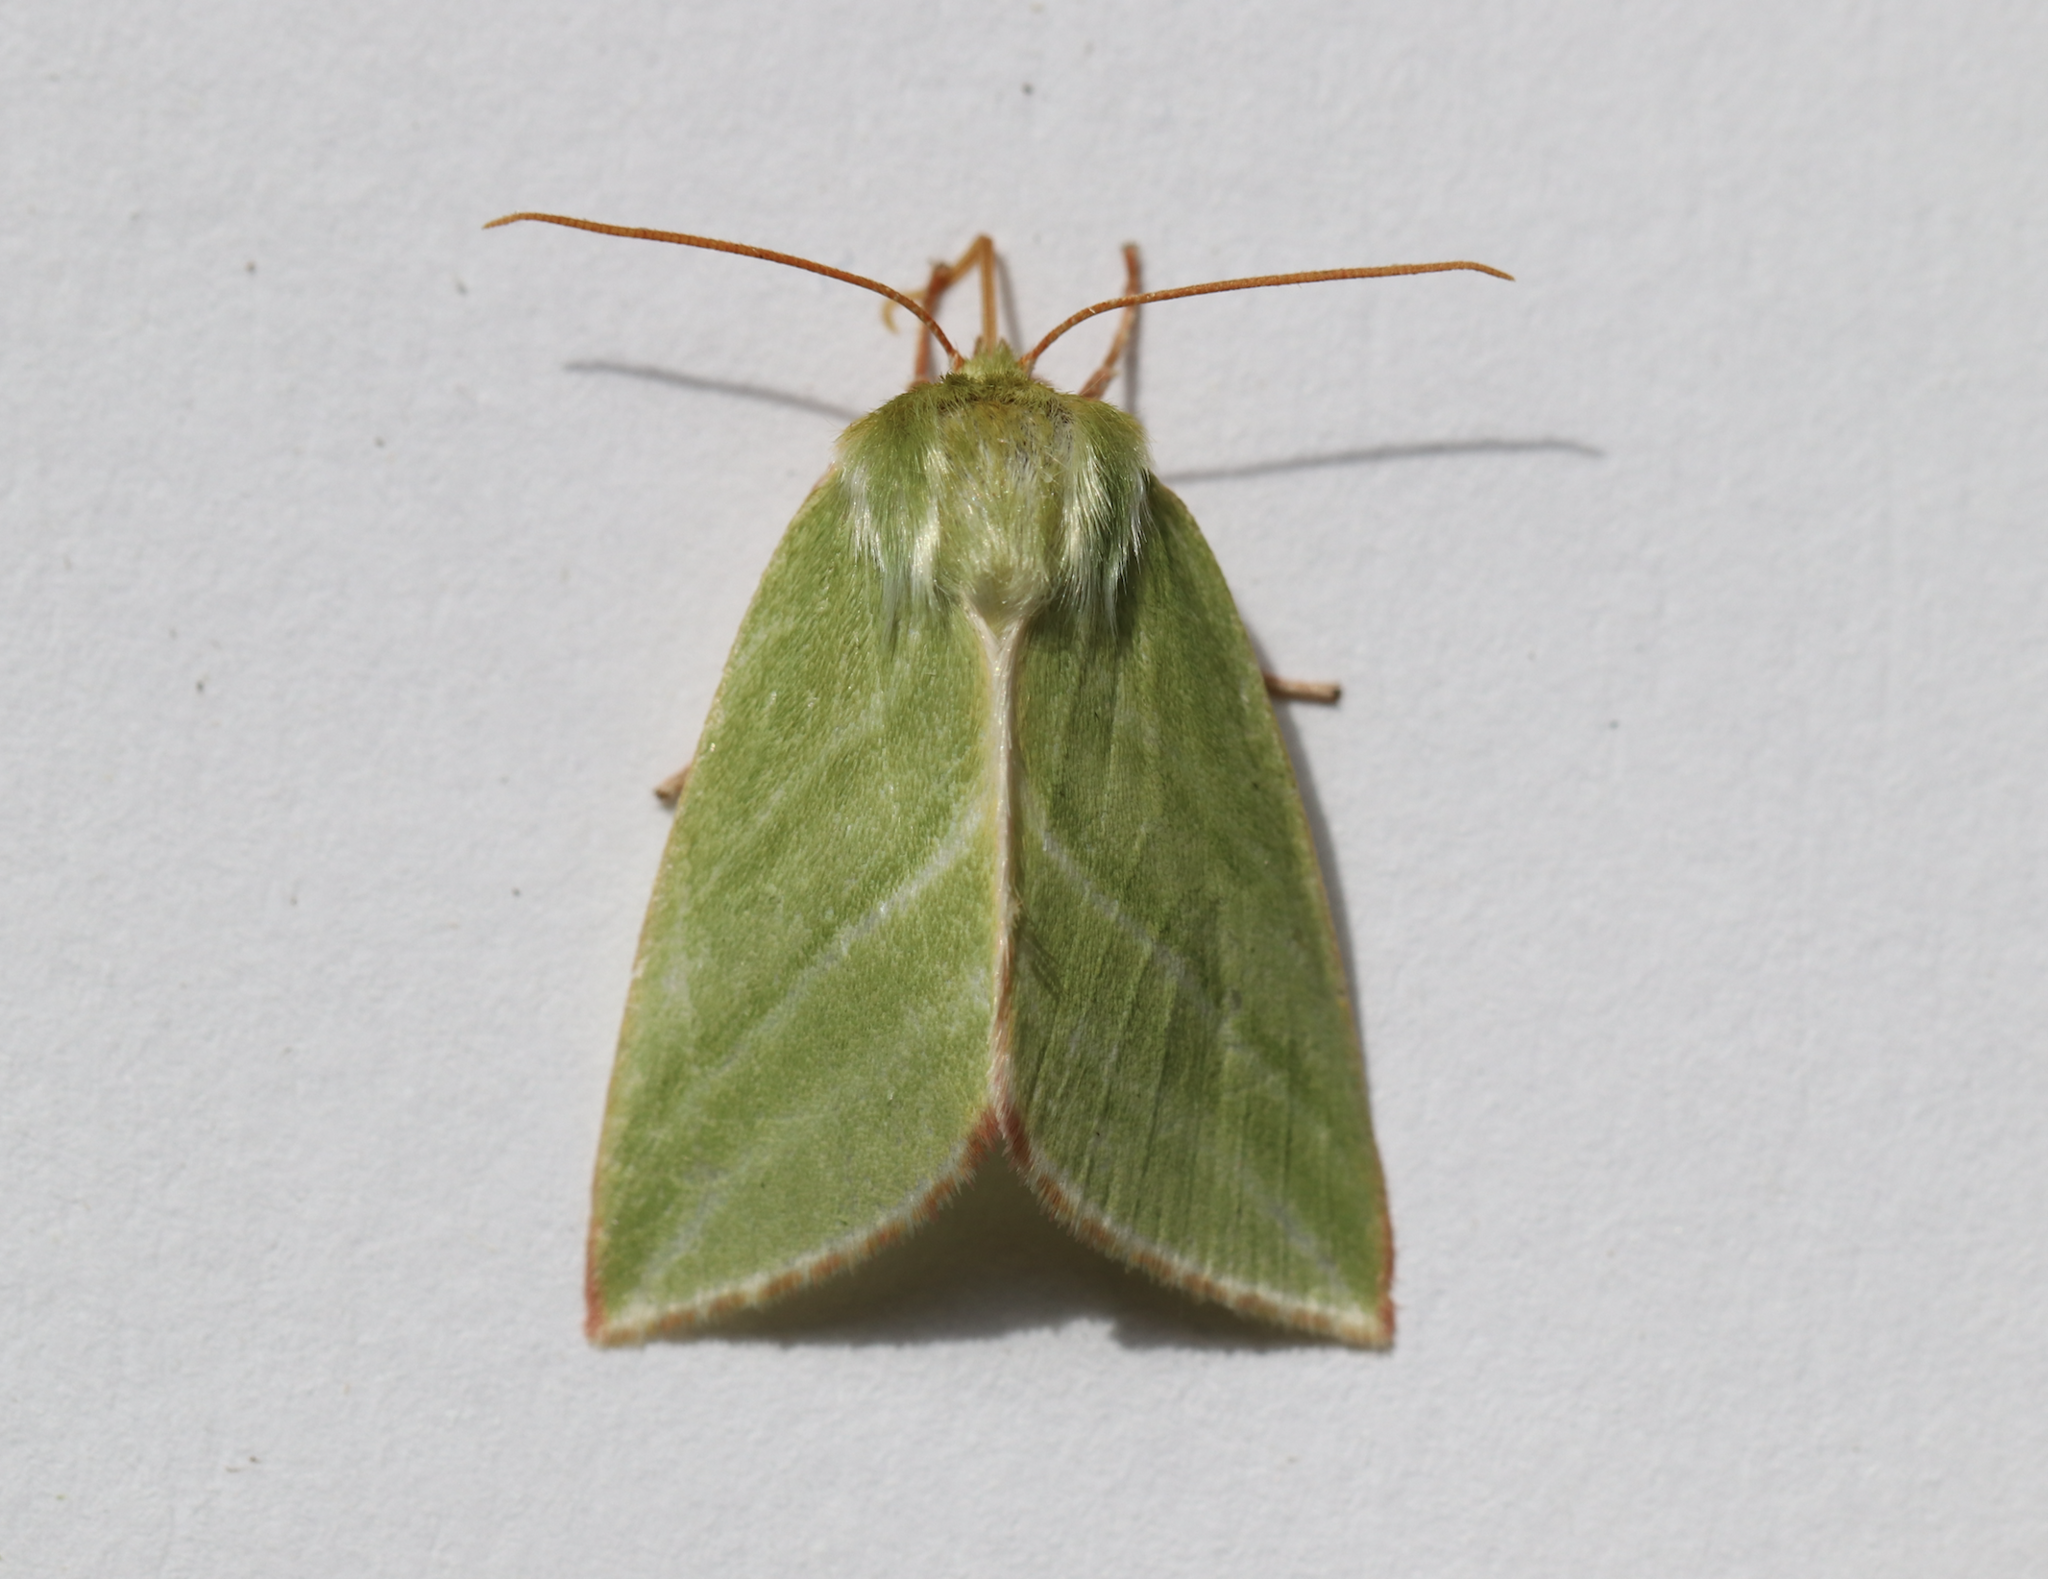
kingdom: Animalia
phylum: Arthropoda
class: Insecta
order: Lepidoptera
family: Nolidae
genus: Pseudoips
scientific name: Pseudoips prasinana
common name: Green silver-lines
